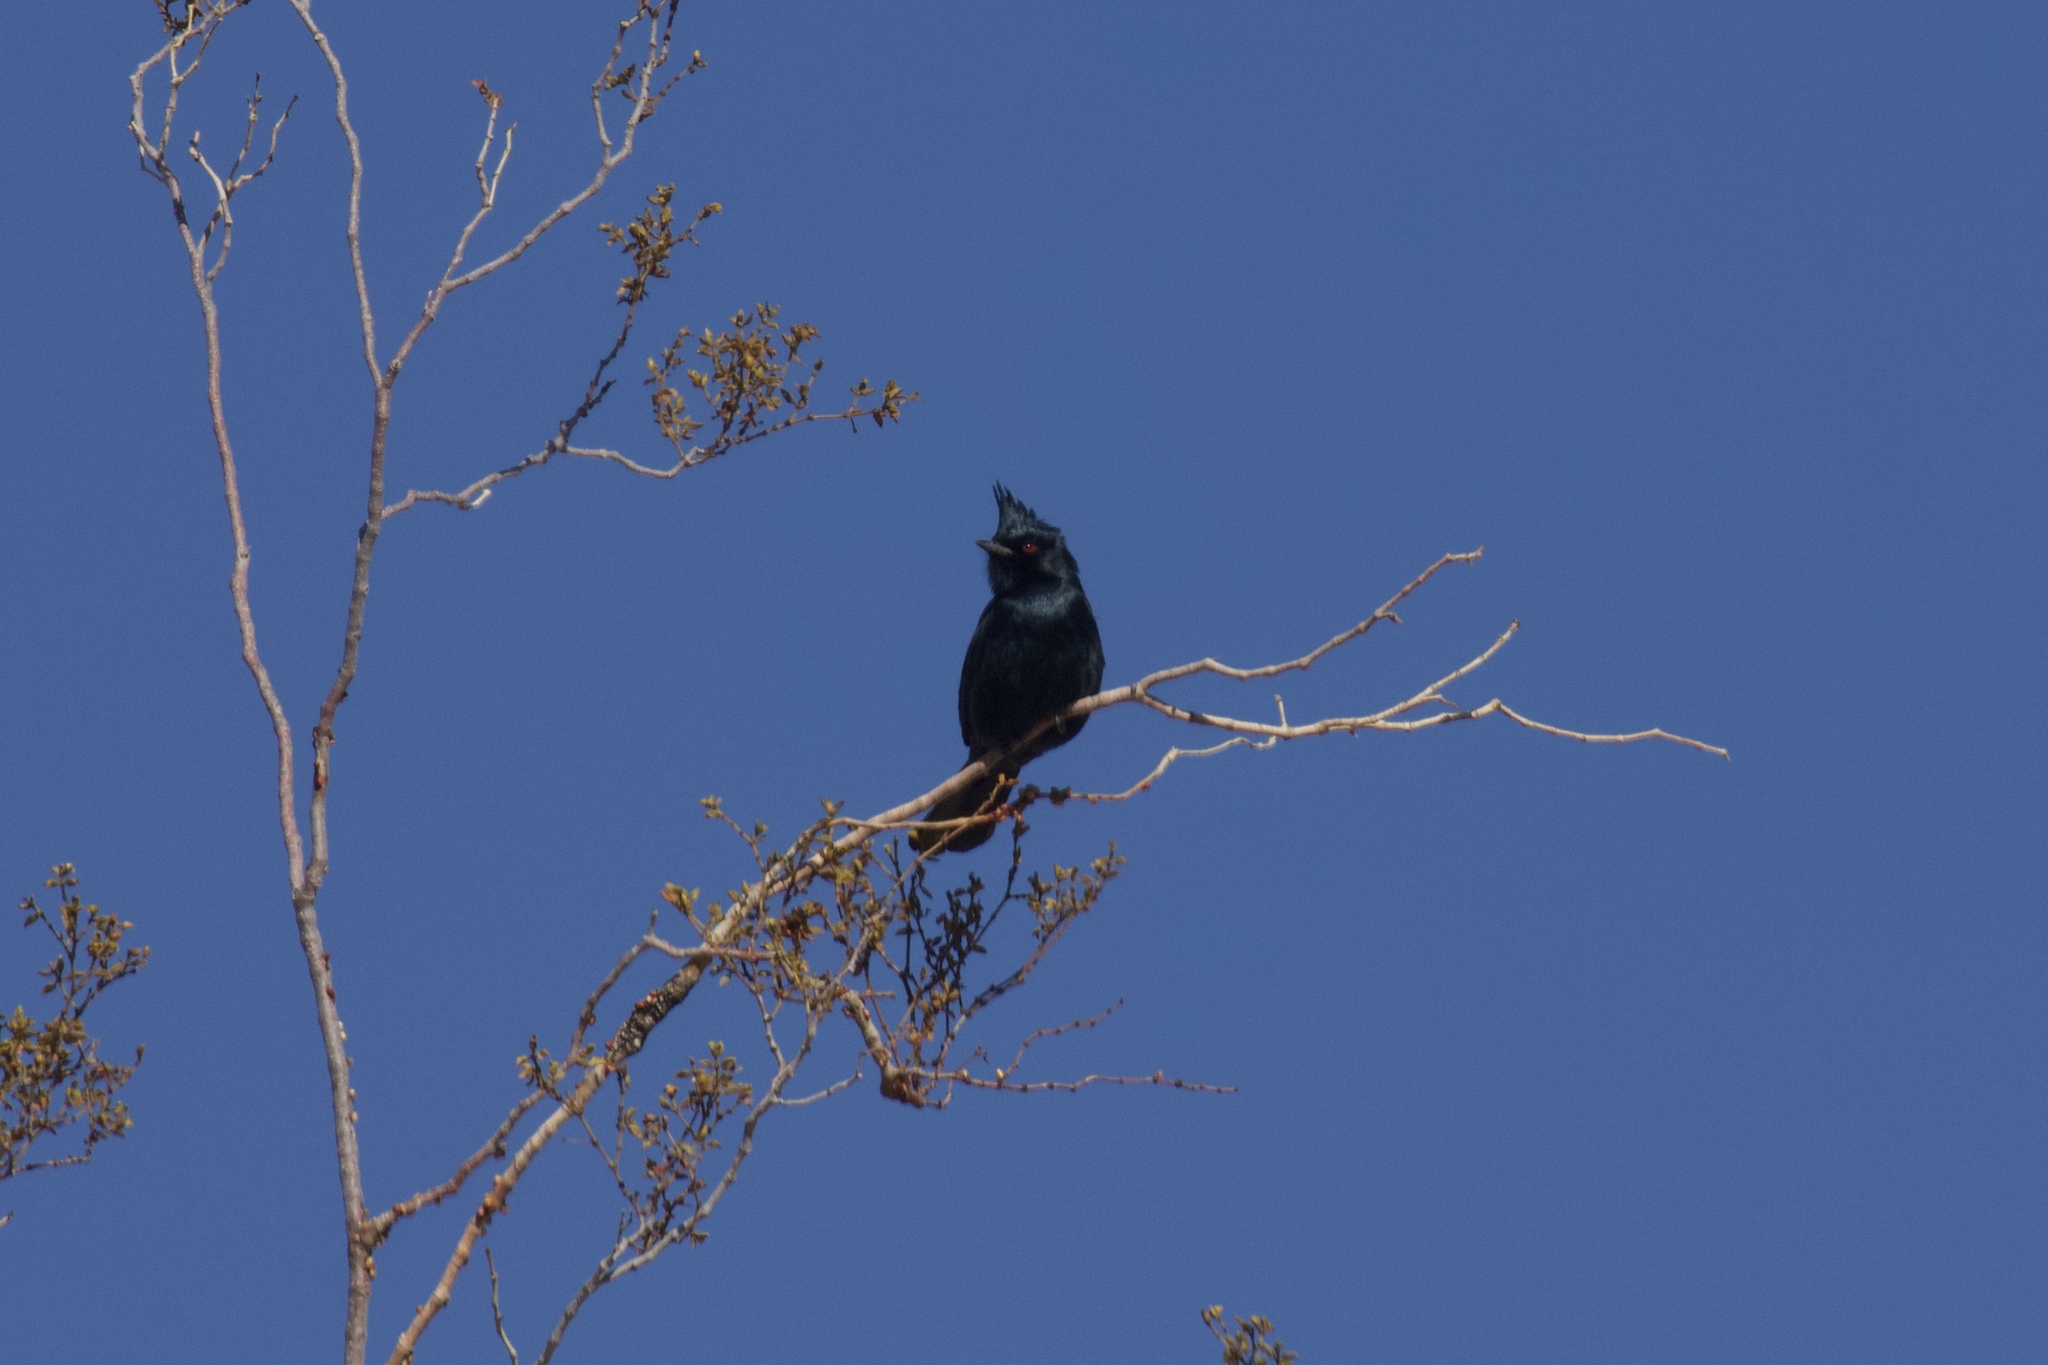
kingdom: Animalia
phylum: Chordata
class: Aves
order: Passeriformes
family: Ptilogonatidae
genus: Phainopepla
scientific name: Phainopepla nitens
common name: Phainopepla
